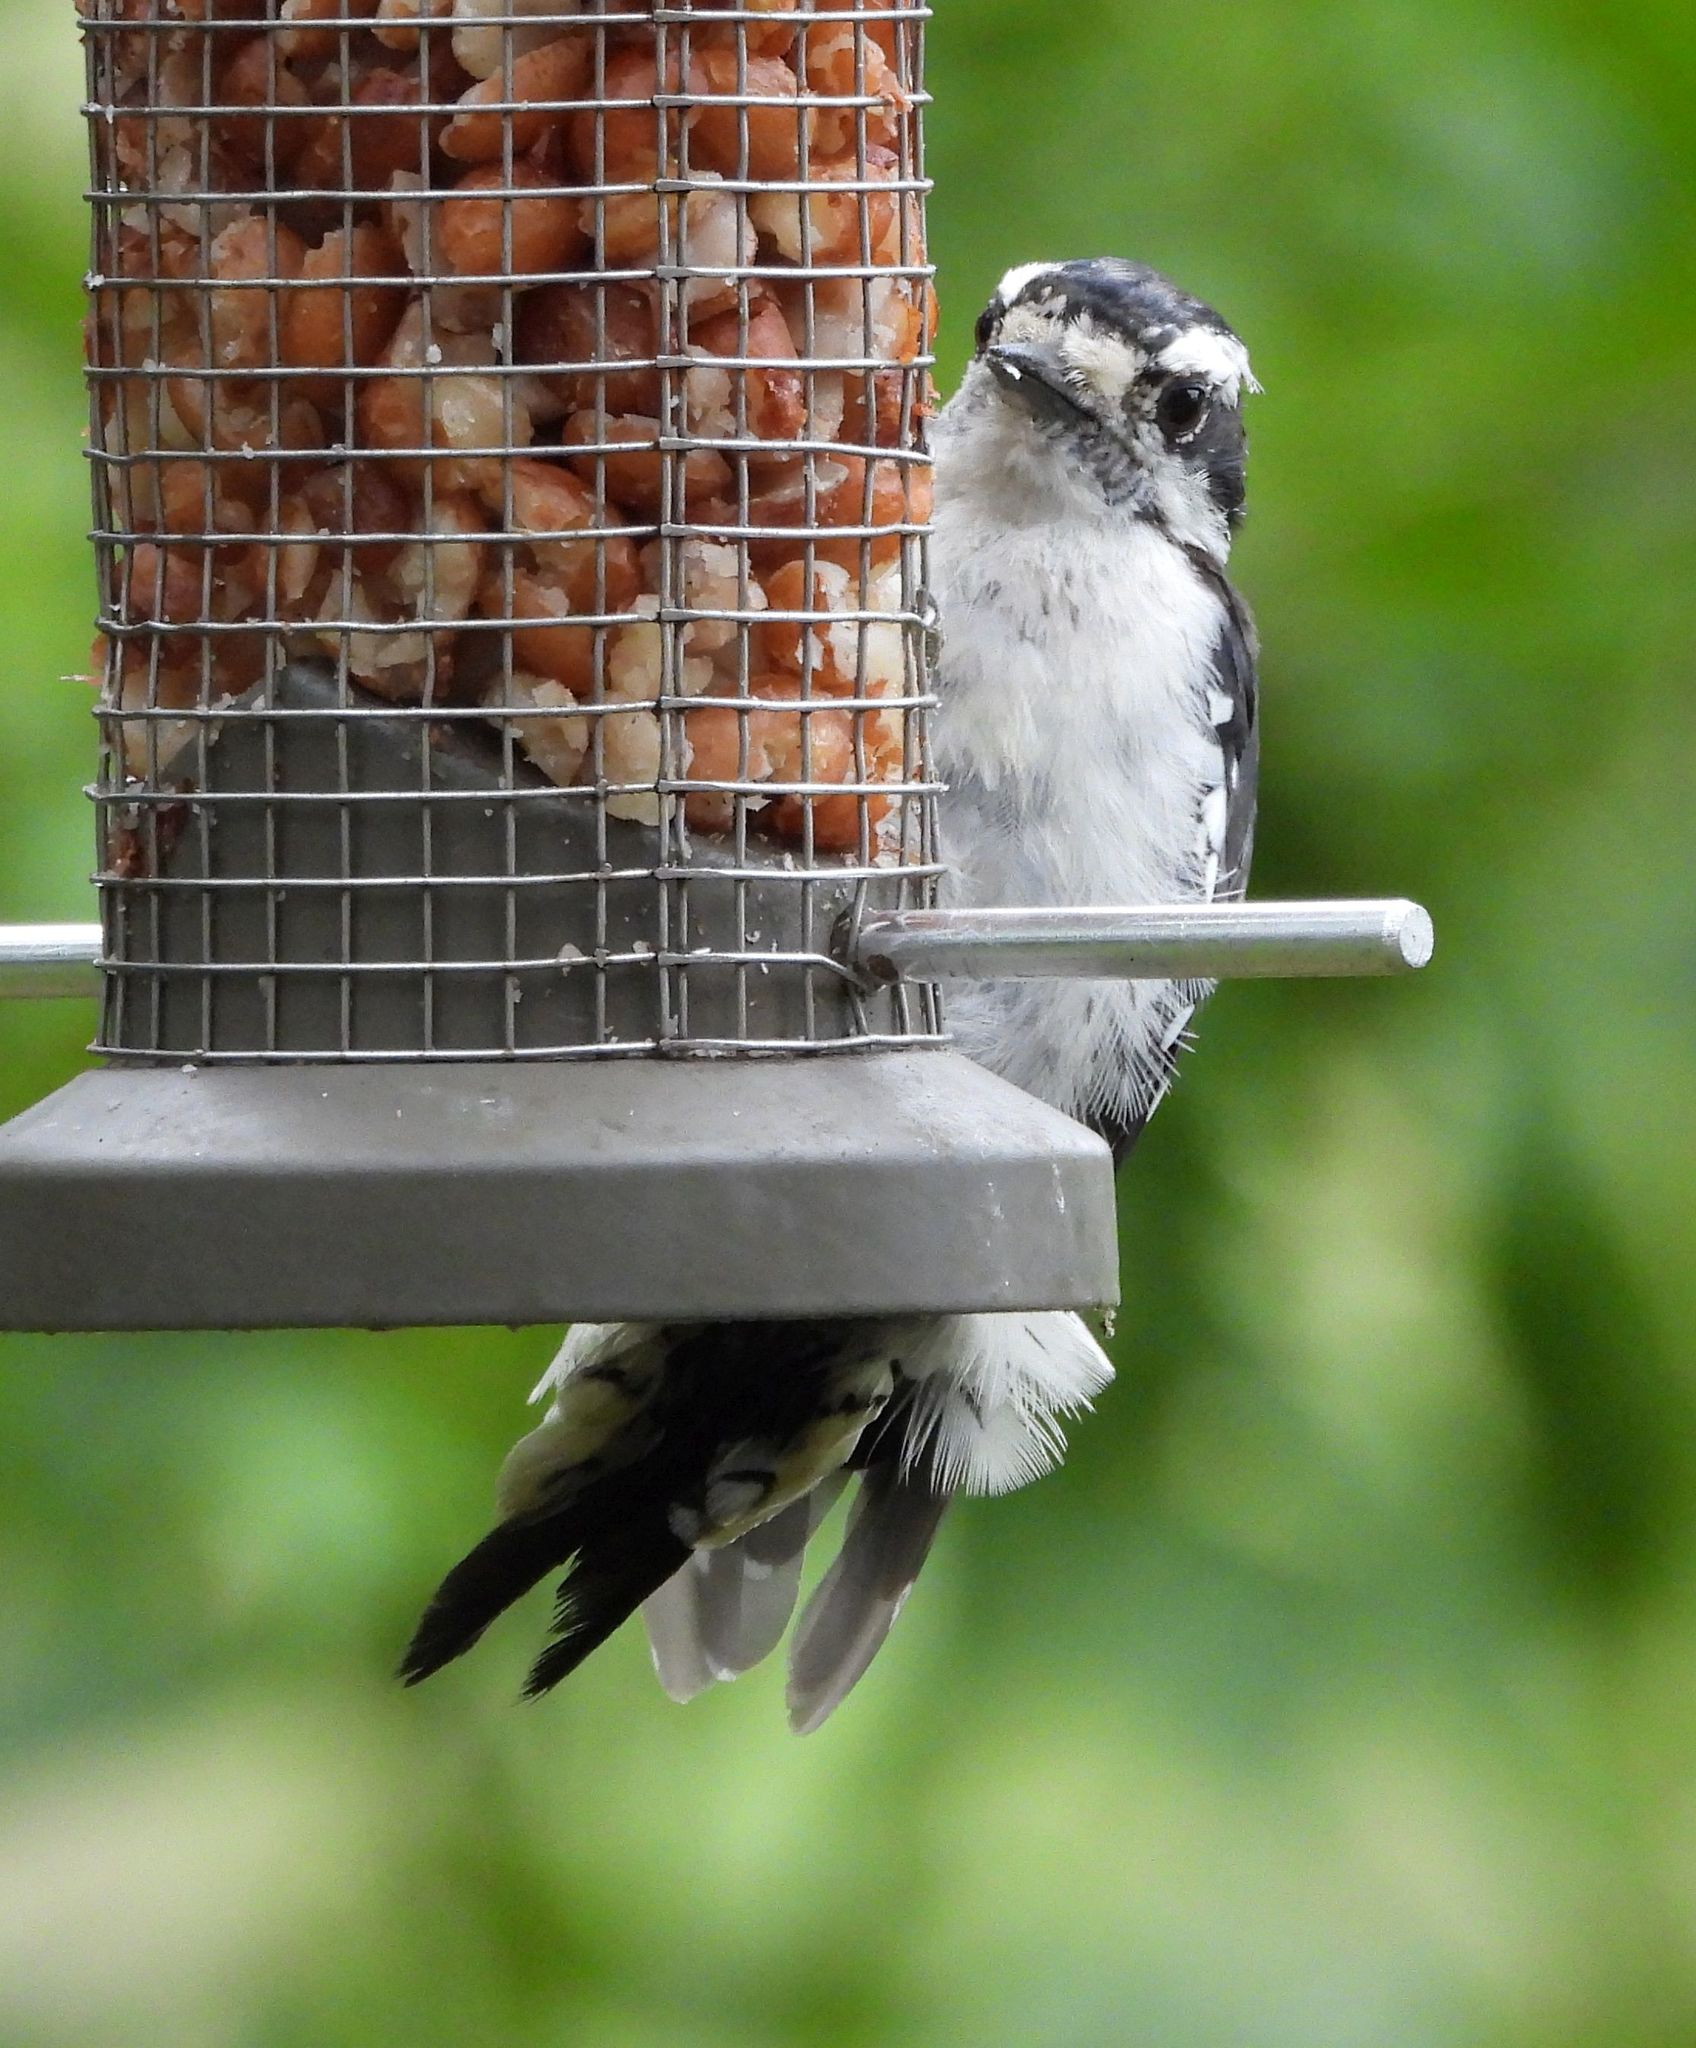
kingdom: Animalia
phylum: Chordata
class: Aves
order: Piciformes
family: Picidae
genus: Dryobates
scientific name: Dryobates pubescens
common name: Downy woodpecker
